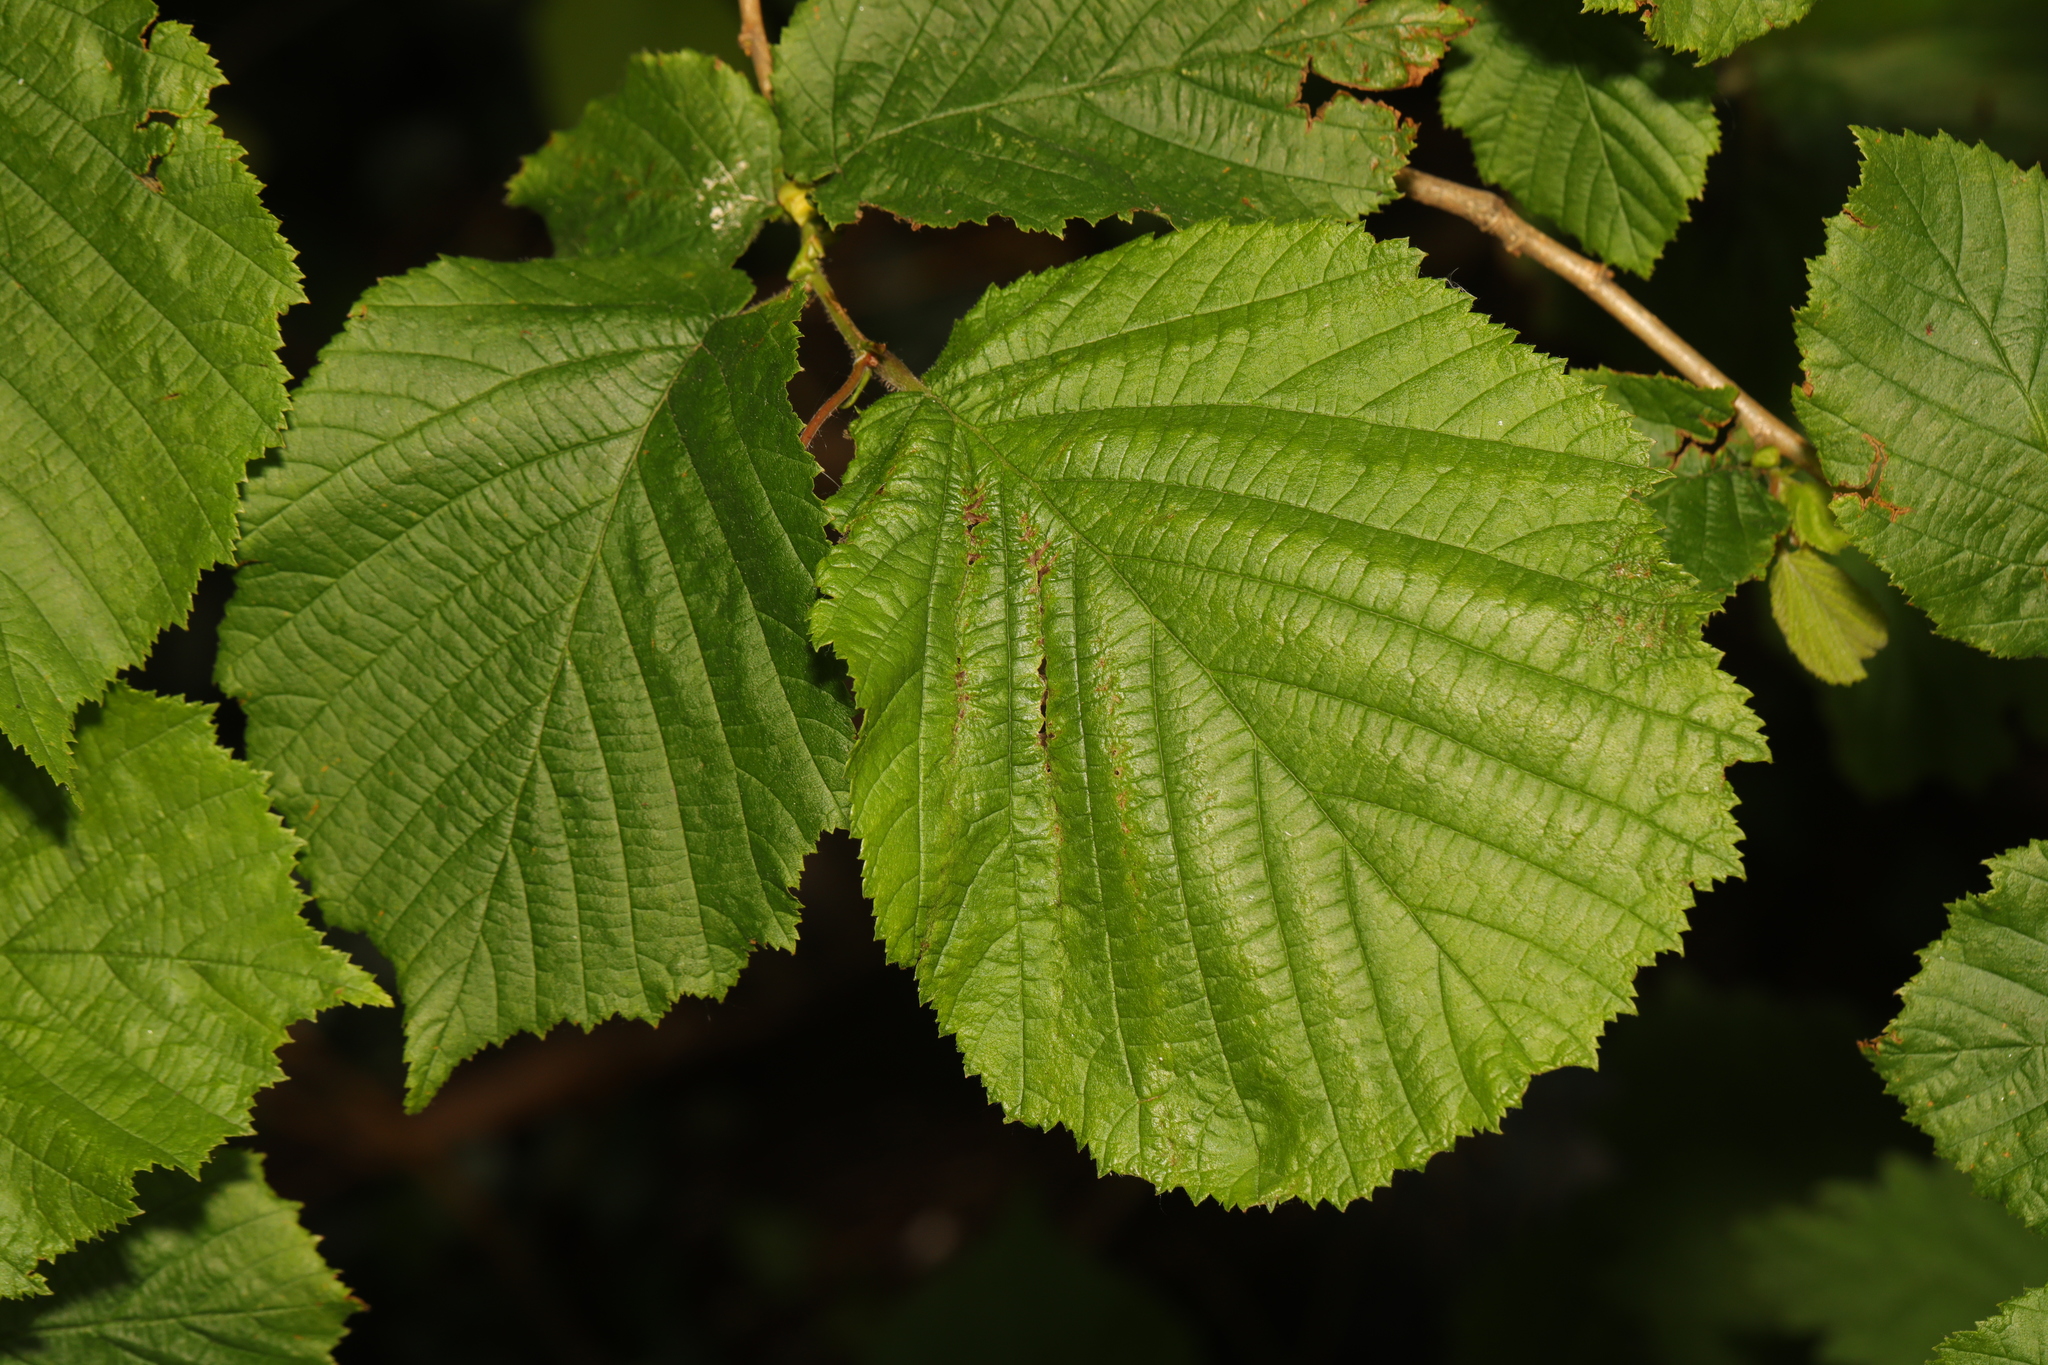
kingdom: Plantae
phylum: Tracheophyta
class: Magnoliopsida
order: Fagales
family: Betulaceae
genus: Corylus
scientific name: Corylus avellana
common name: European hazel
